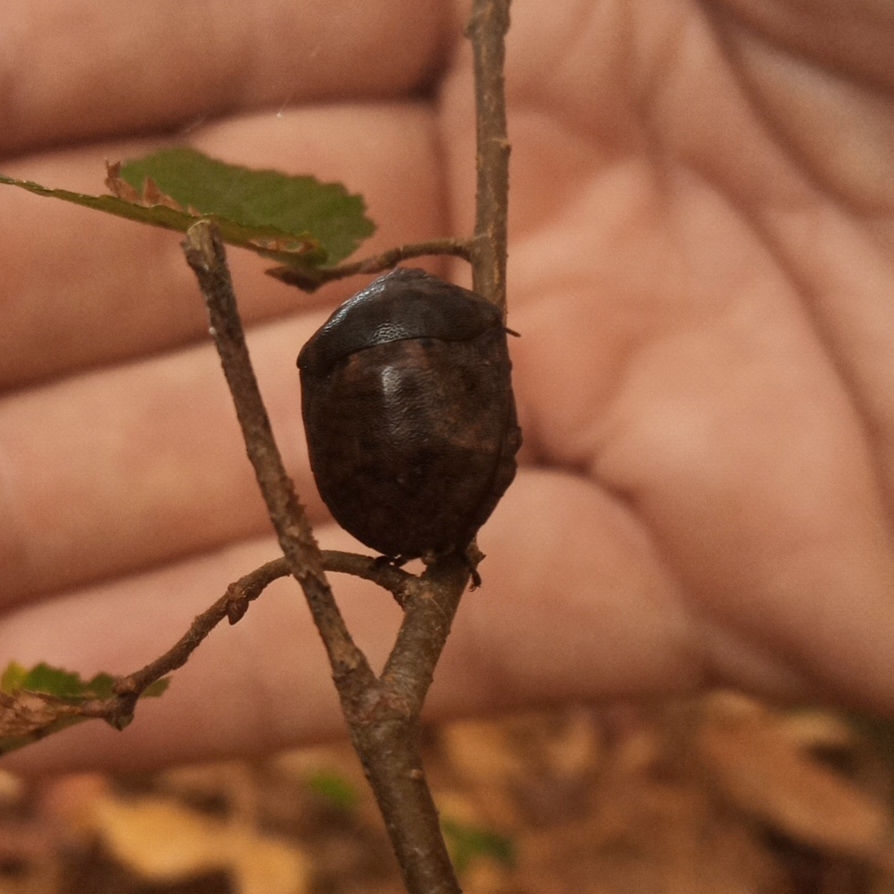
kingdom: Animalia
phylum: Arthropoda
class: Insecta
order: Hemiptera
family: Scutelleridae
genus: Tetyra
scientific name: Tetyra bipunctata
